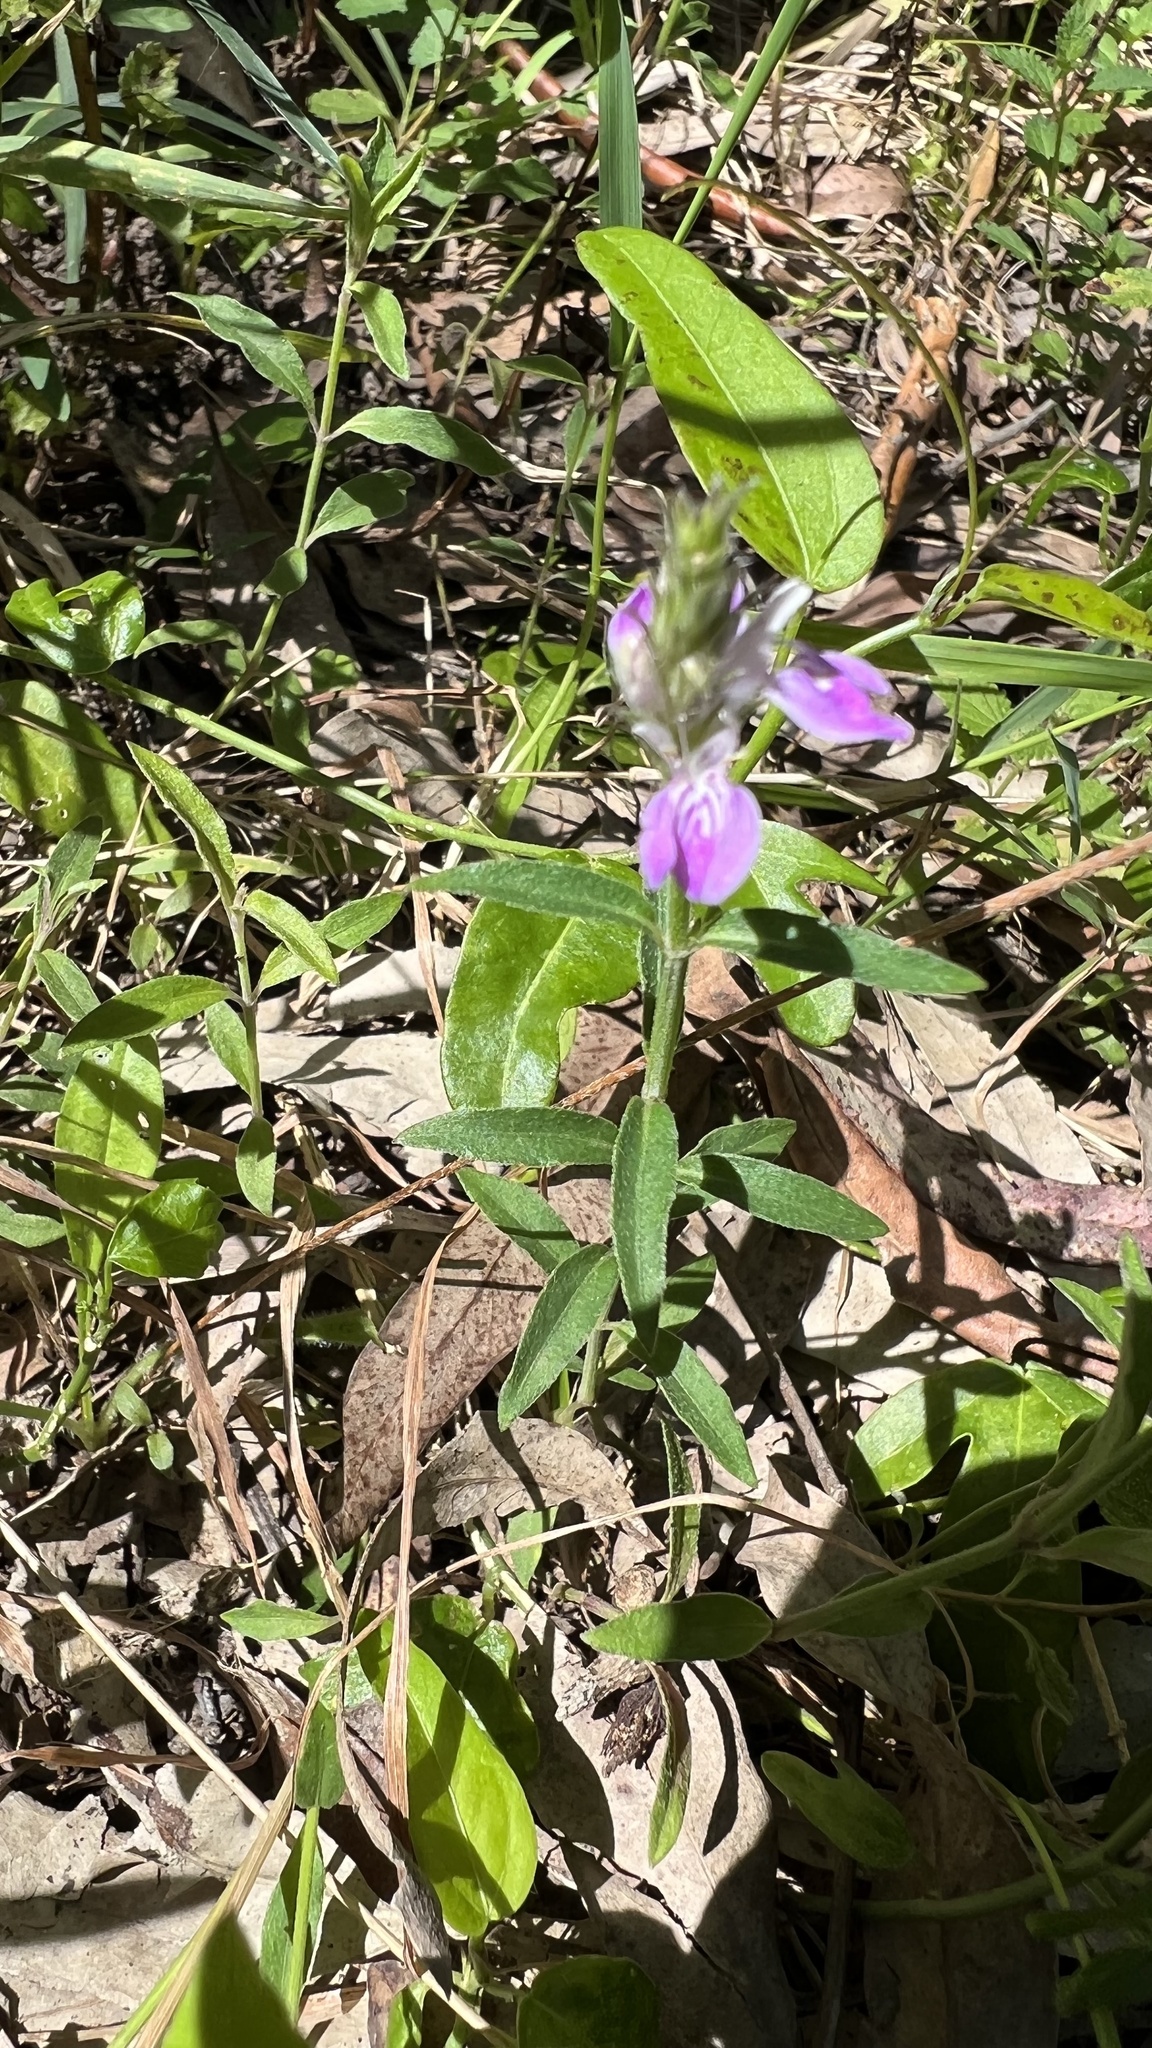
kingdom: Plantae
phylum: Tracheophyta
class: Magnoliopsida
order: Lamiales
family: Acanthaceae
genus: Rostellularia
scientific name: Rostellularia adscendens
